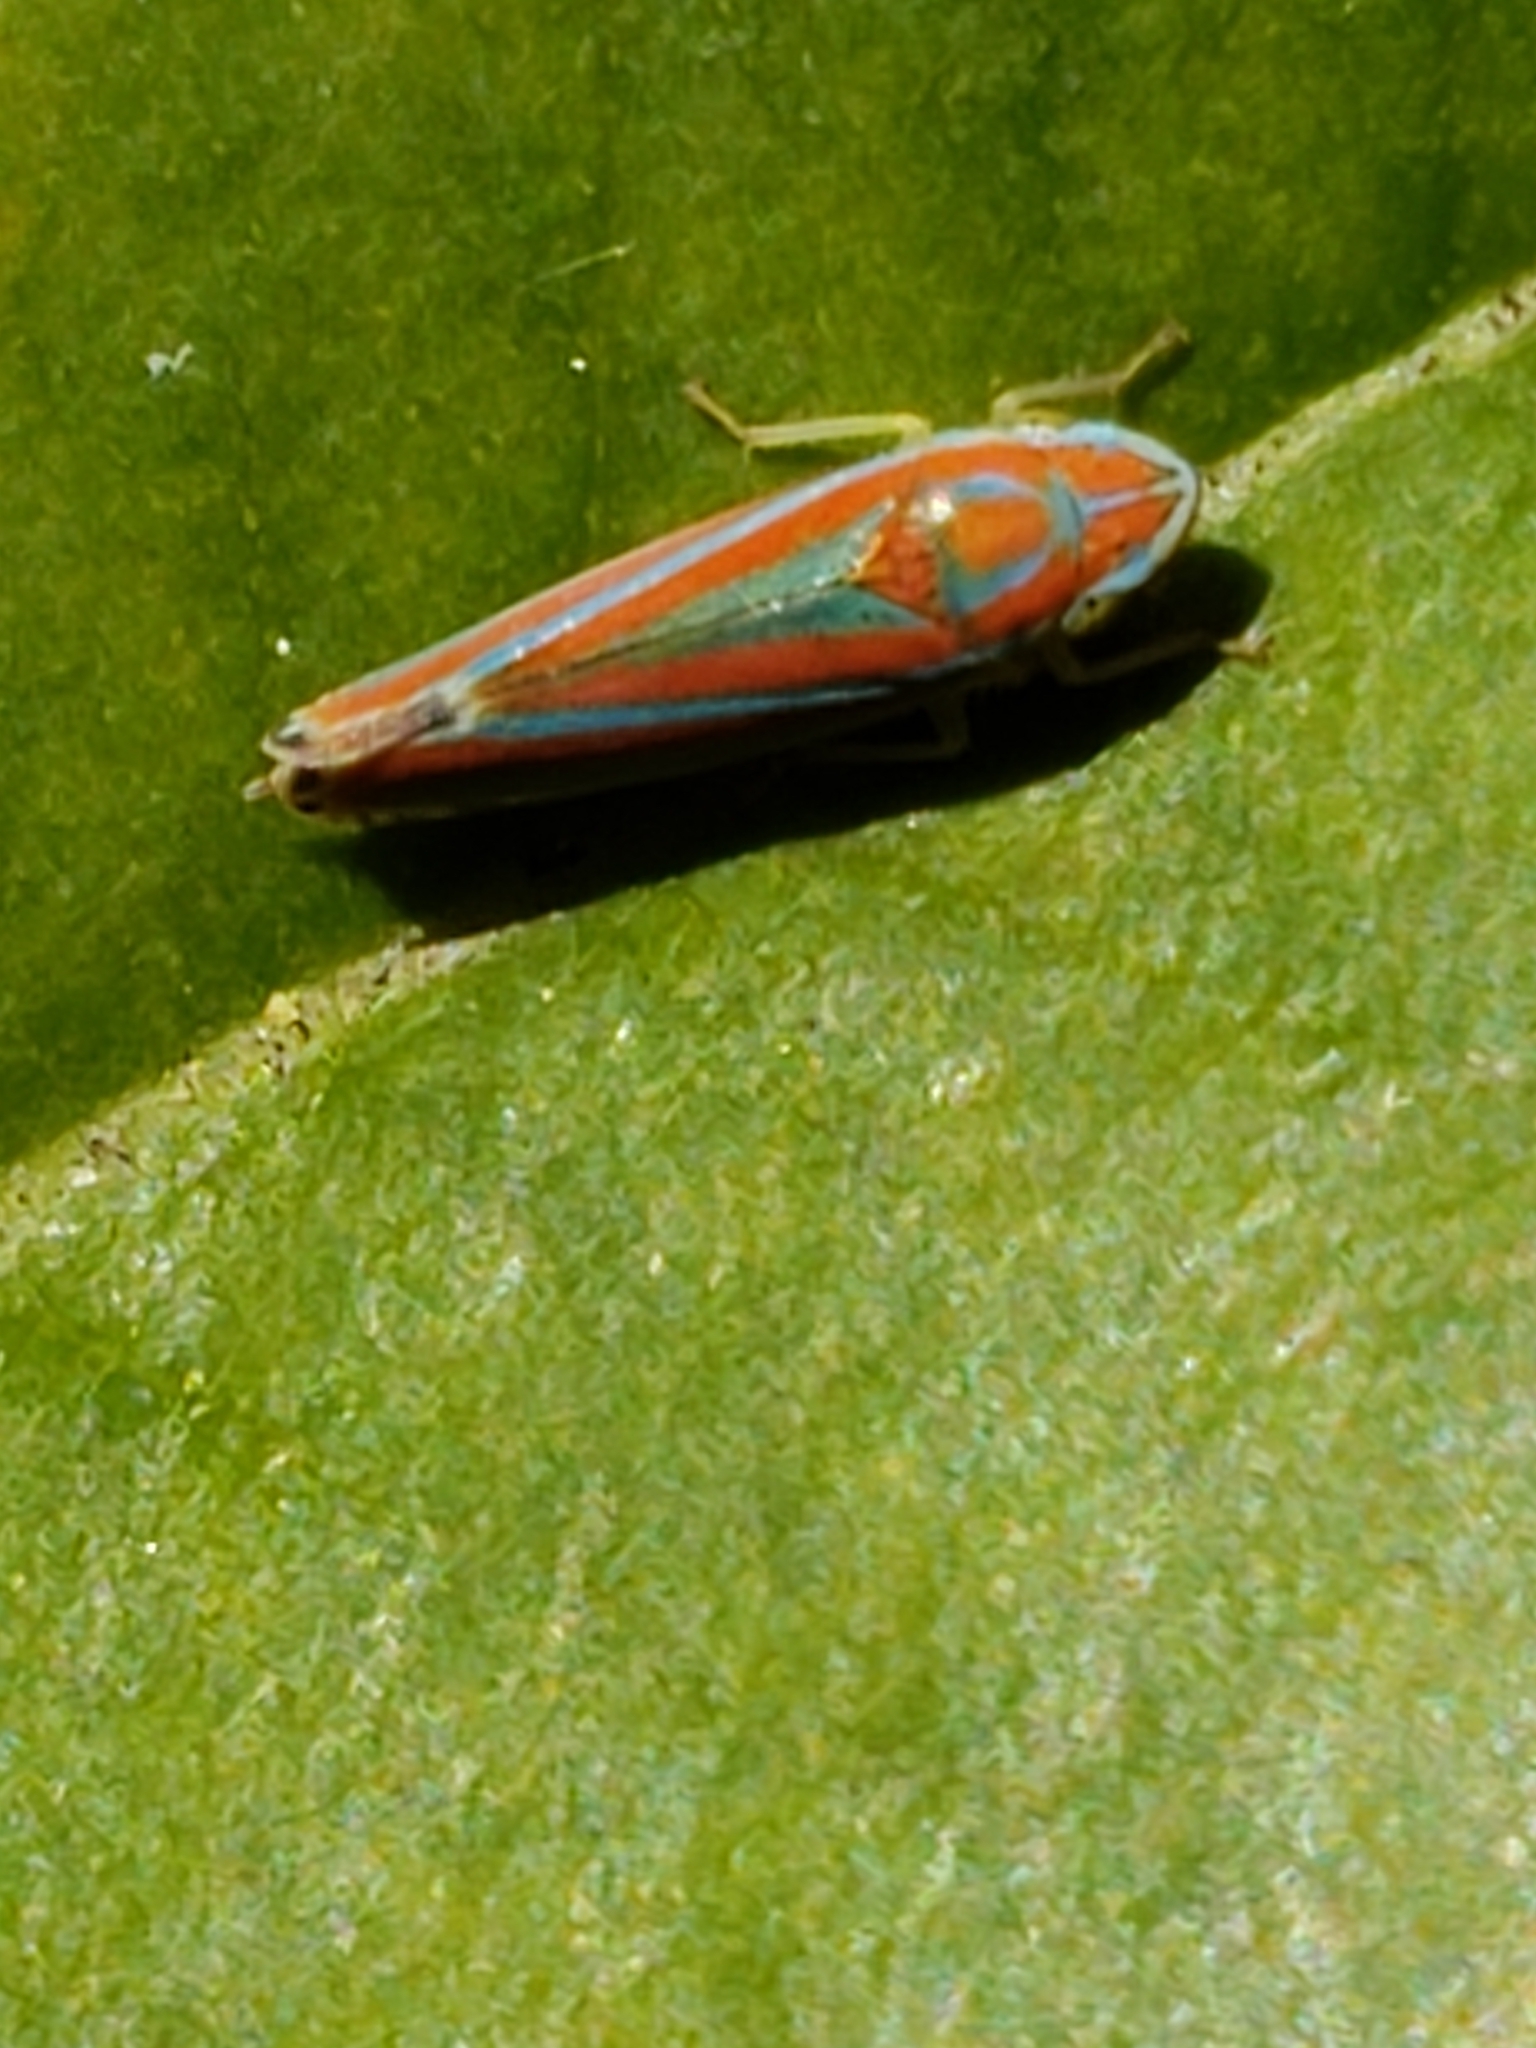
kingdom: Animalia
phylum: Arthropoda
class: Insecta
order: Hemiptera
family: Cicadellidae
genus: Graphocephala
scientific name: Graphocephala versuta
